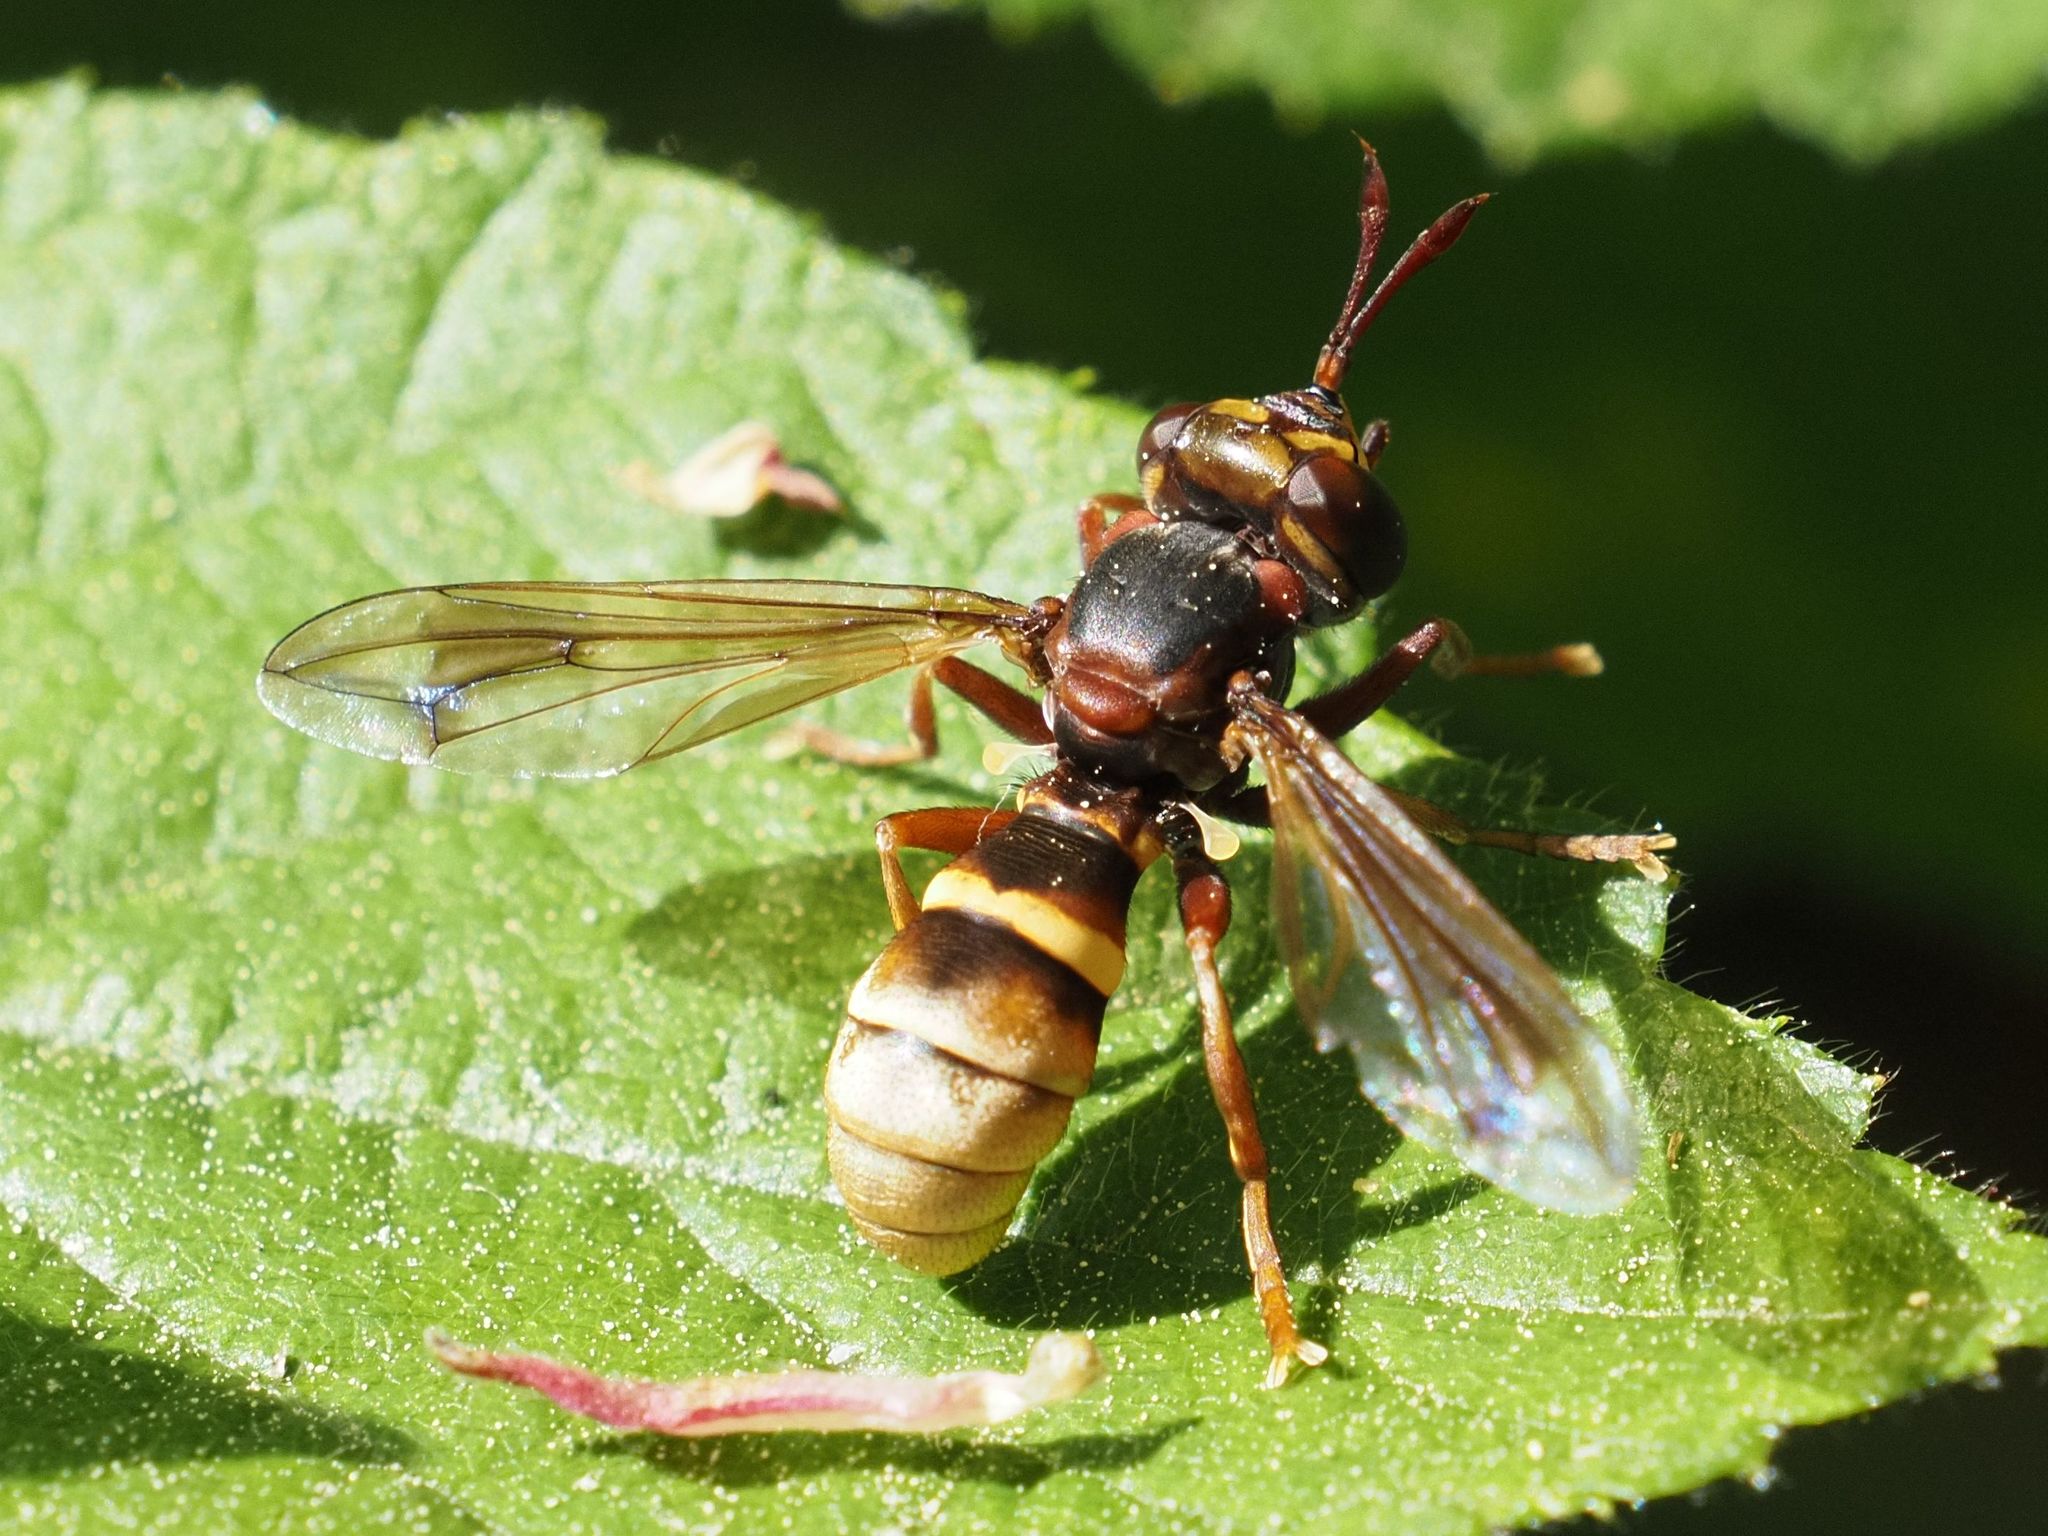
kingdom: Animalia
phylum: Arthropoda
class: Insecta
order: Diptera
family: Conopidae
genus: Conops
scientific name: Conops vesicularis
